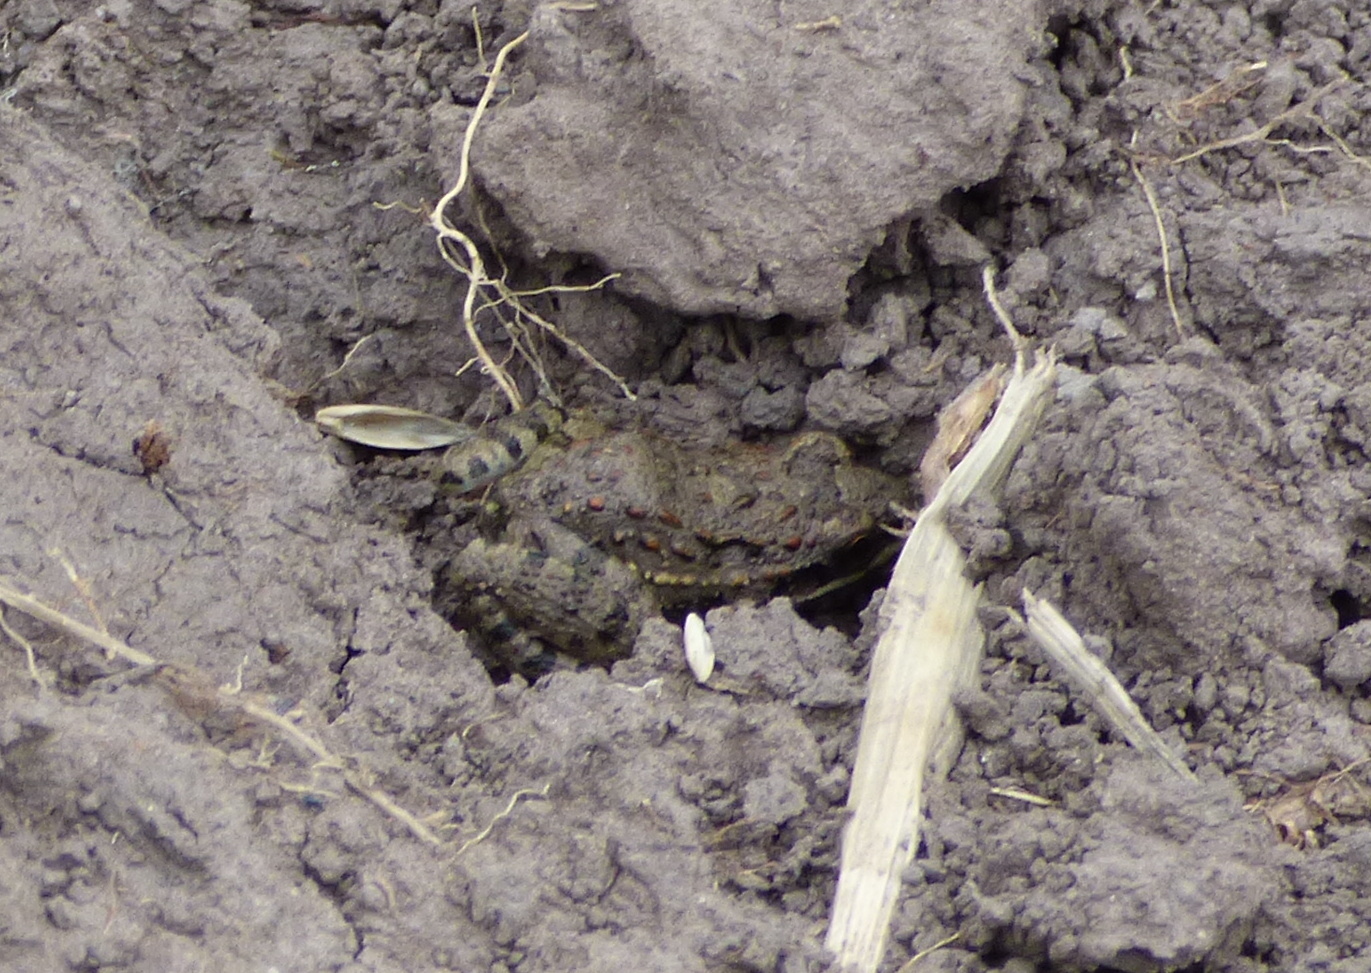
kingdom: Animalia
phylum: Chordata
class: Amphibia
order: Anura
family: Leptodactylidae
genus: Leptodactylus
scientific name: Leptodactylus latinasus
